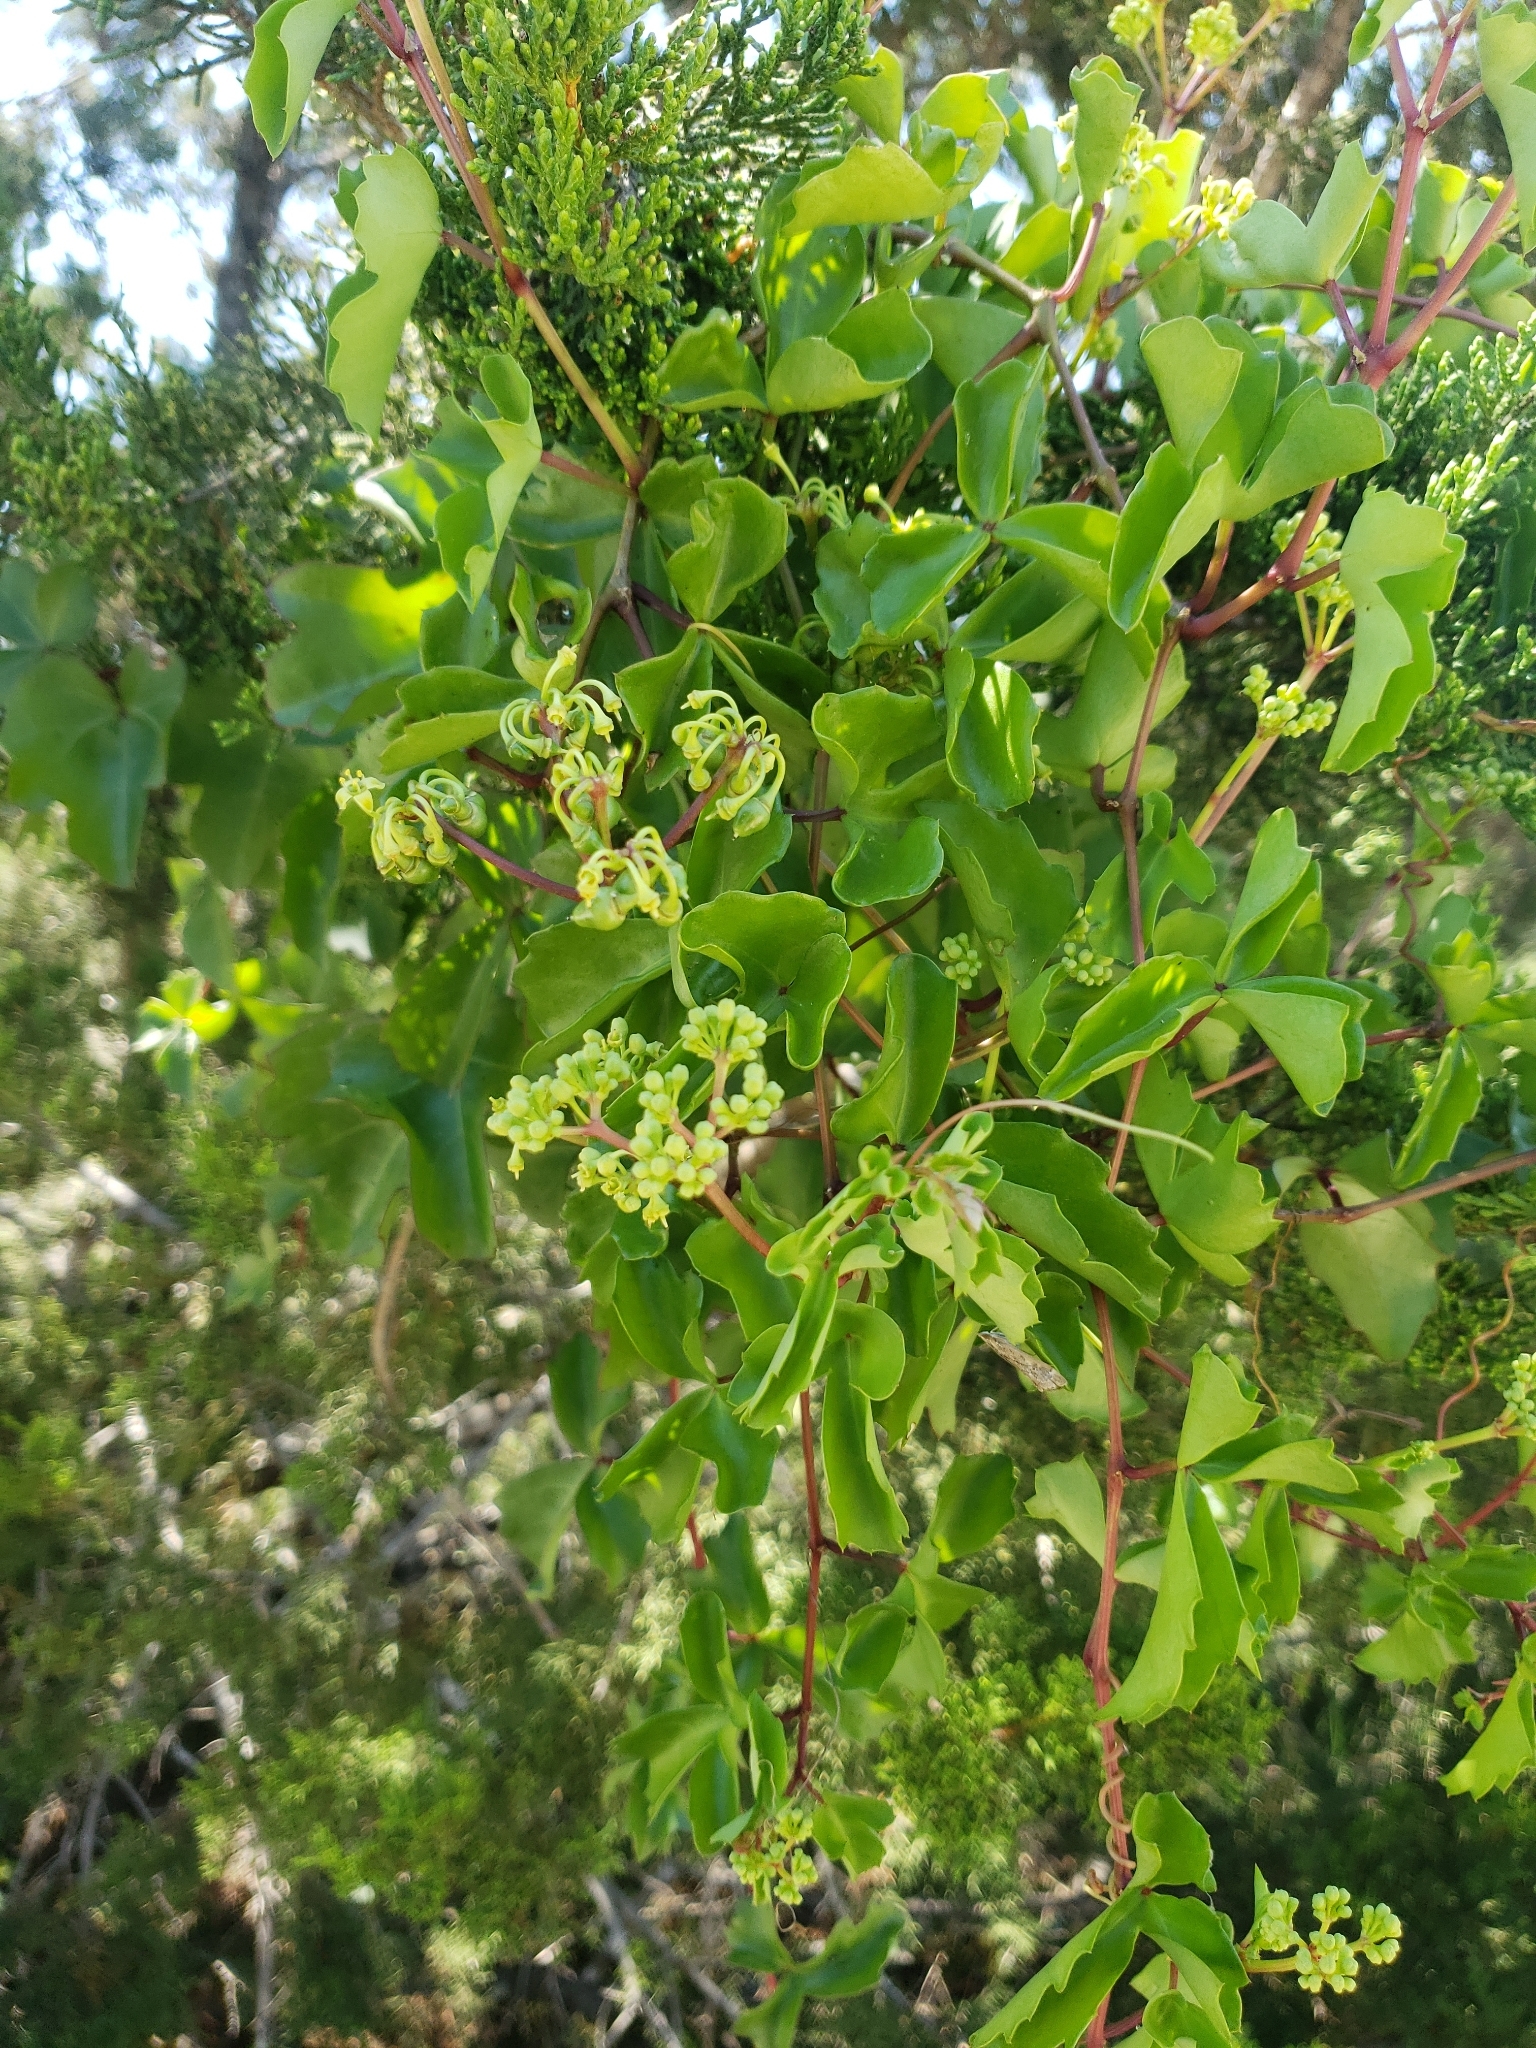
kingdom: Plantae
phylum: Tracheophyta
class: Magnoliopsida
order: Vitales
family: Vitaceae
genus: Cissus
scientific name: Cissus trifoliata
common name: Vine-sorrel
